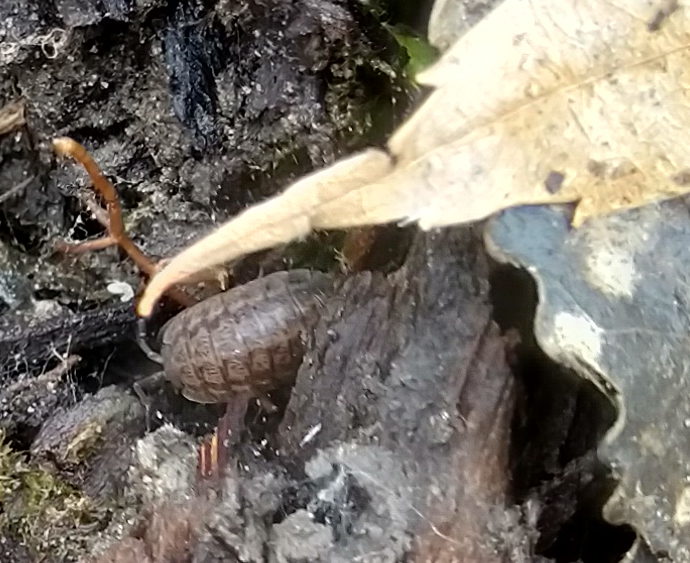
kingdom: Animalia
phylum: Arthropoda
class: Malacostraca
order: Isopoda
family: Trachelipodidae
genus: Trachelipus
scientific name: Trachelipus rathkii
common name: Isopod
